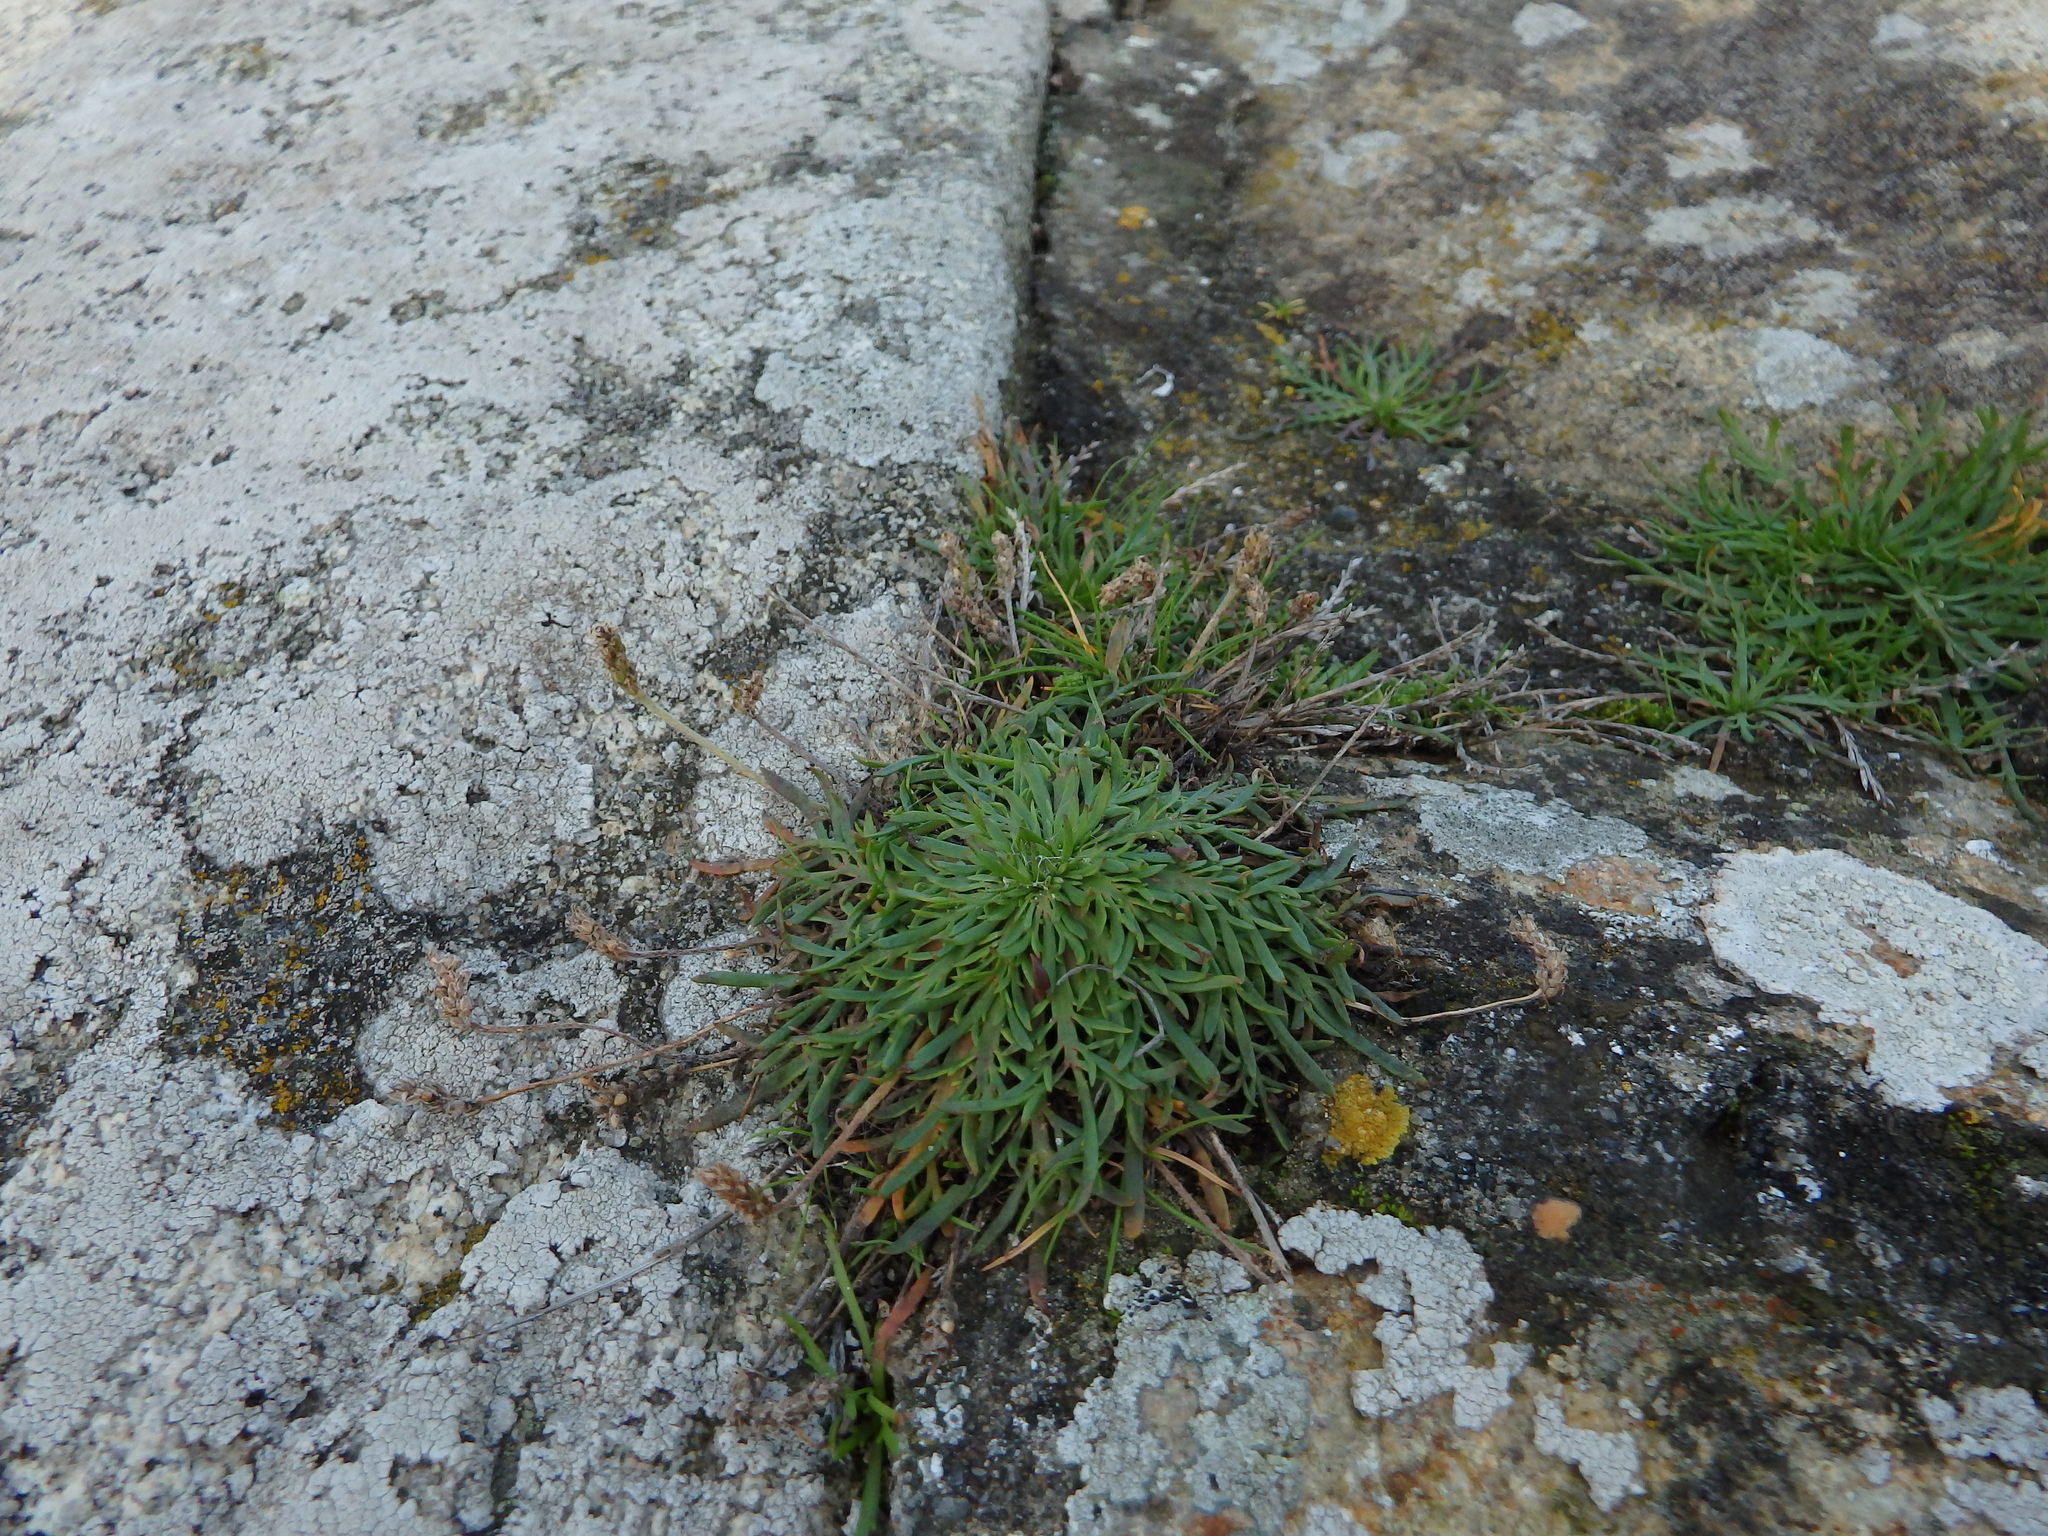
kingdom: Plantae
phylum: Tracheophyta
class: Magnoliopsida
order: Lamiales
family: Plantaginaceae
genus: Plantago
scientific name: Plantago coronopus
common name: Buck's-horn plantain
